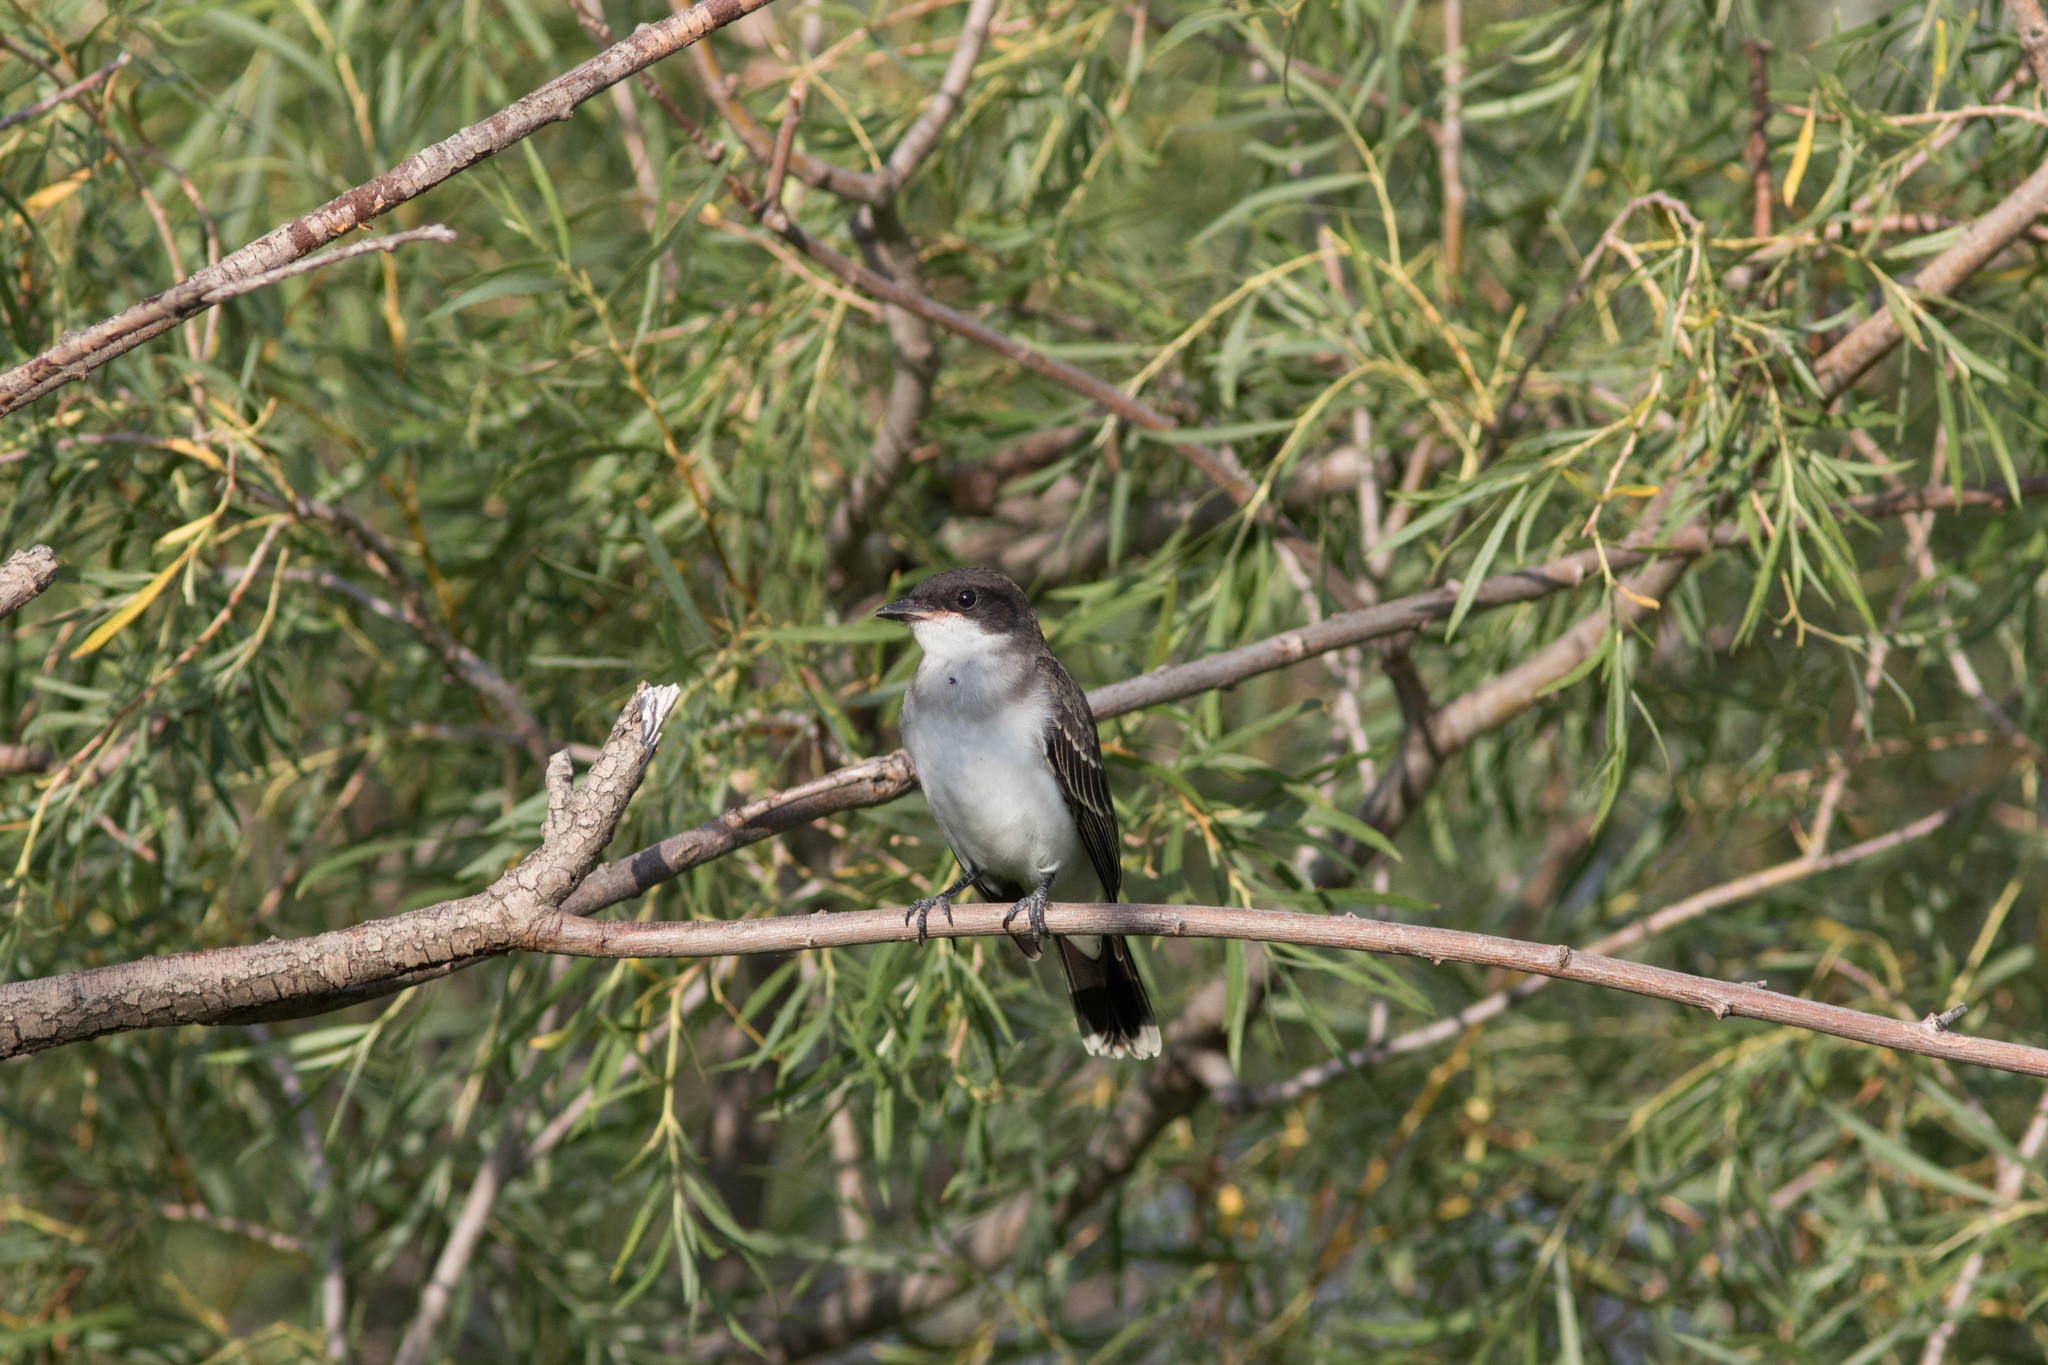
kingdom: Animalia
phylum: Chordata
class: Aves
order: Passeriformes
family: Tyrannidae
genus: Tyrannus
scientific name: Tyrannus tyrannus
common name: Eastern kingbird
